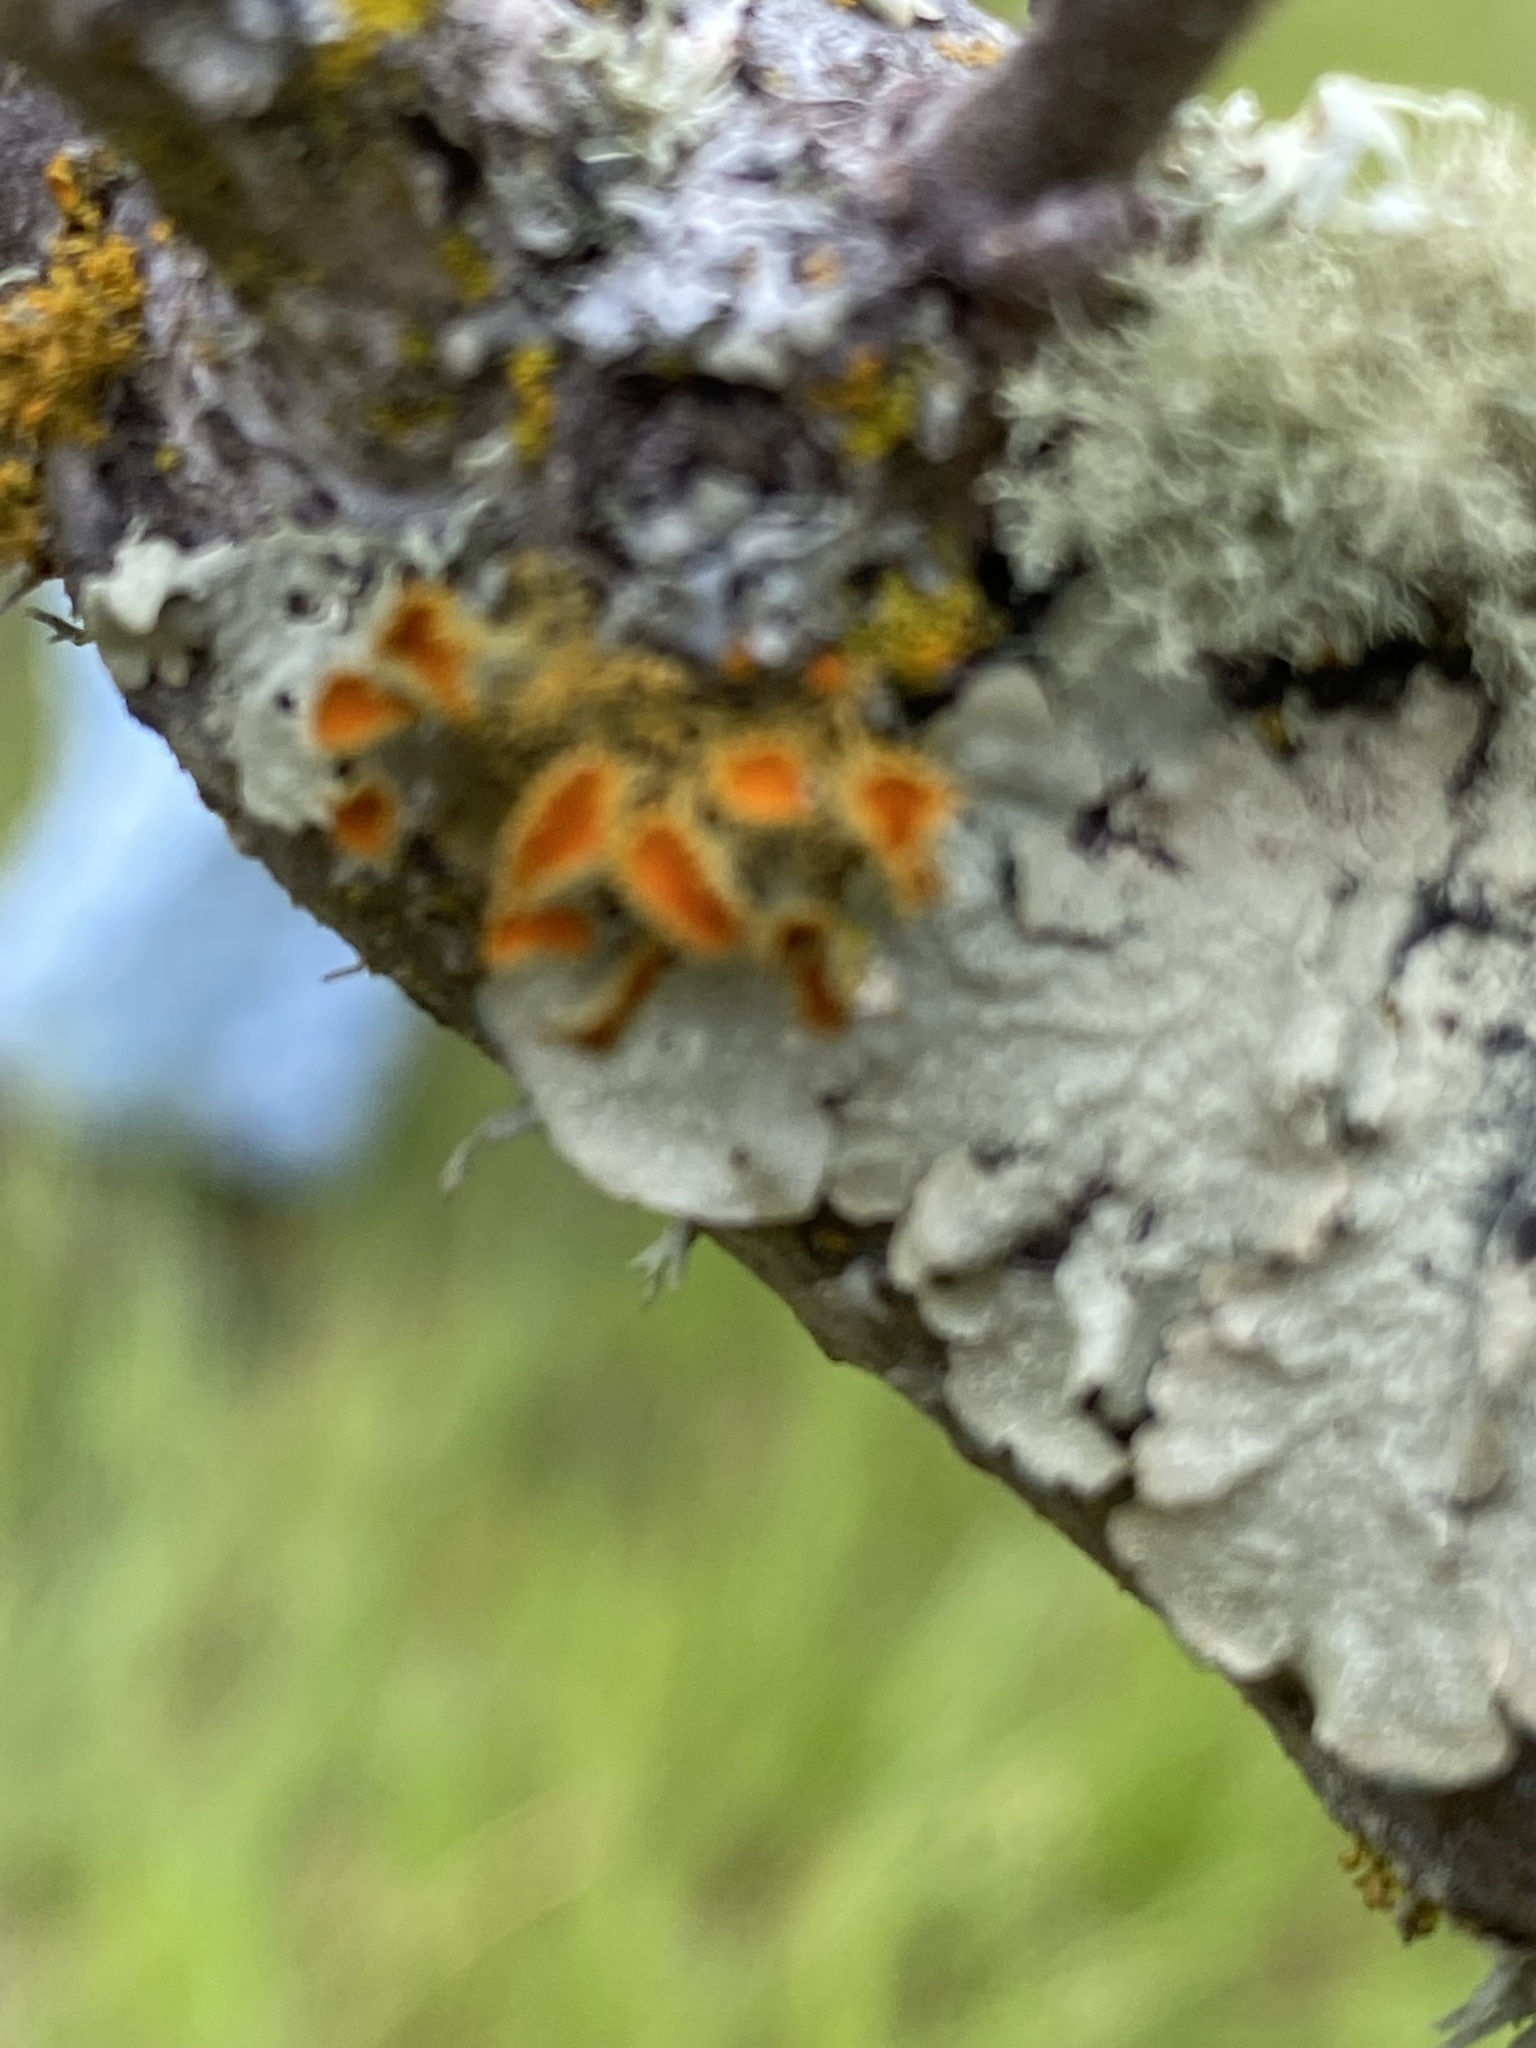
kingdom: Fungi
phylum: Ascomycota
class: Lecanoromycetes
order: Teloschistales
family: Teloschistaceae
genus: Niorma
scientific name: Niorma chrysophthalma
